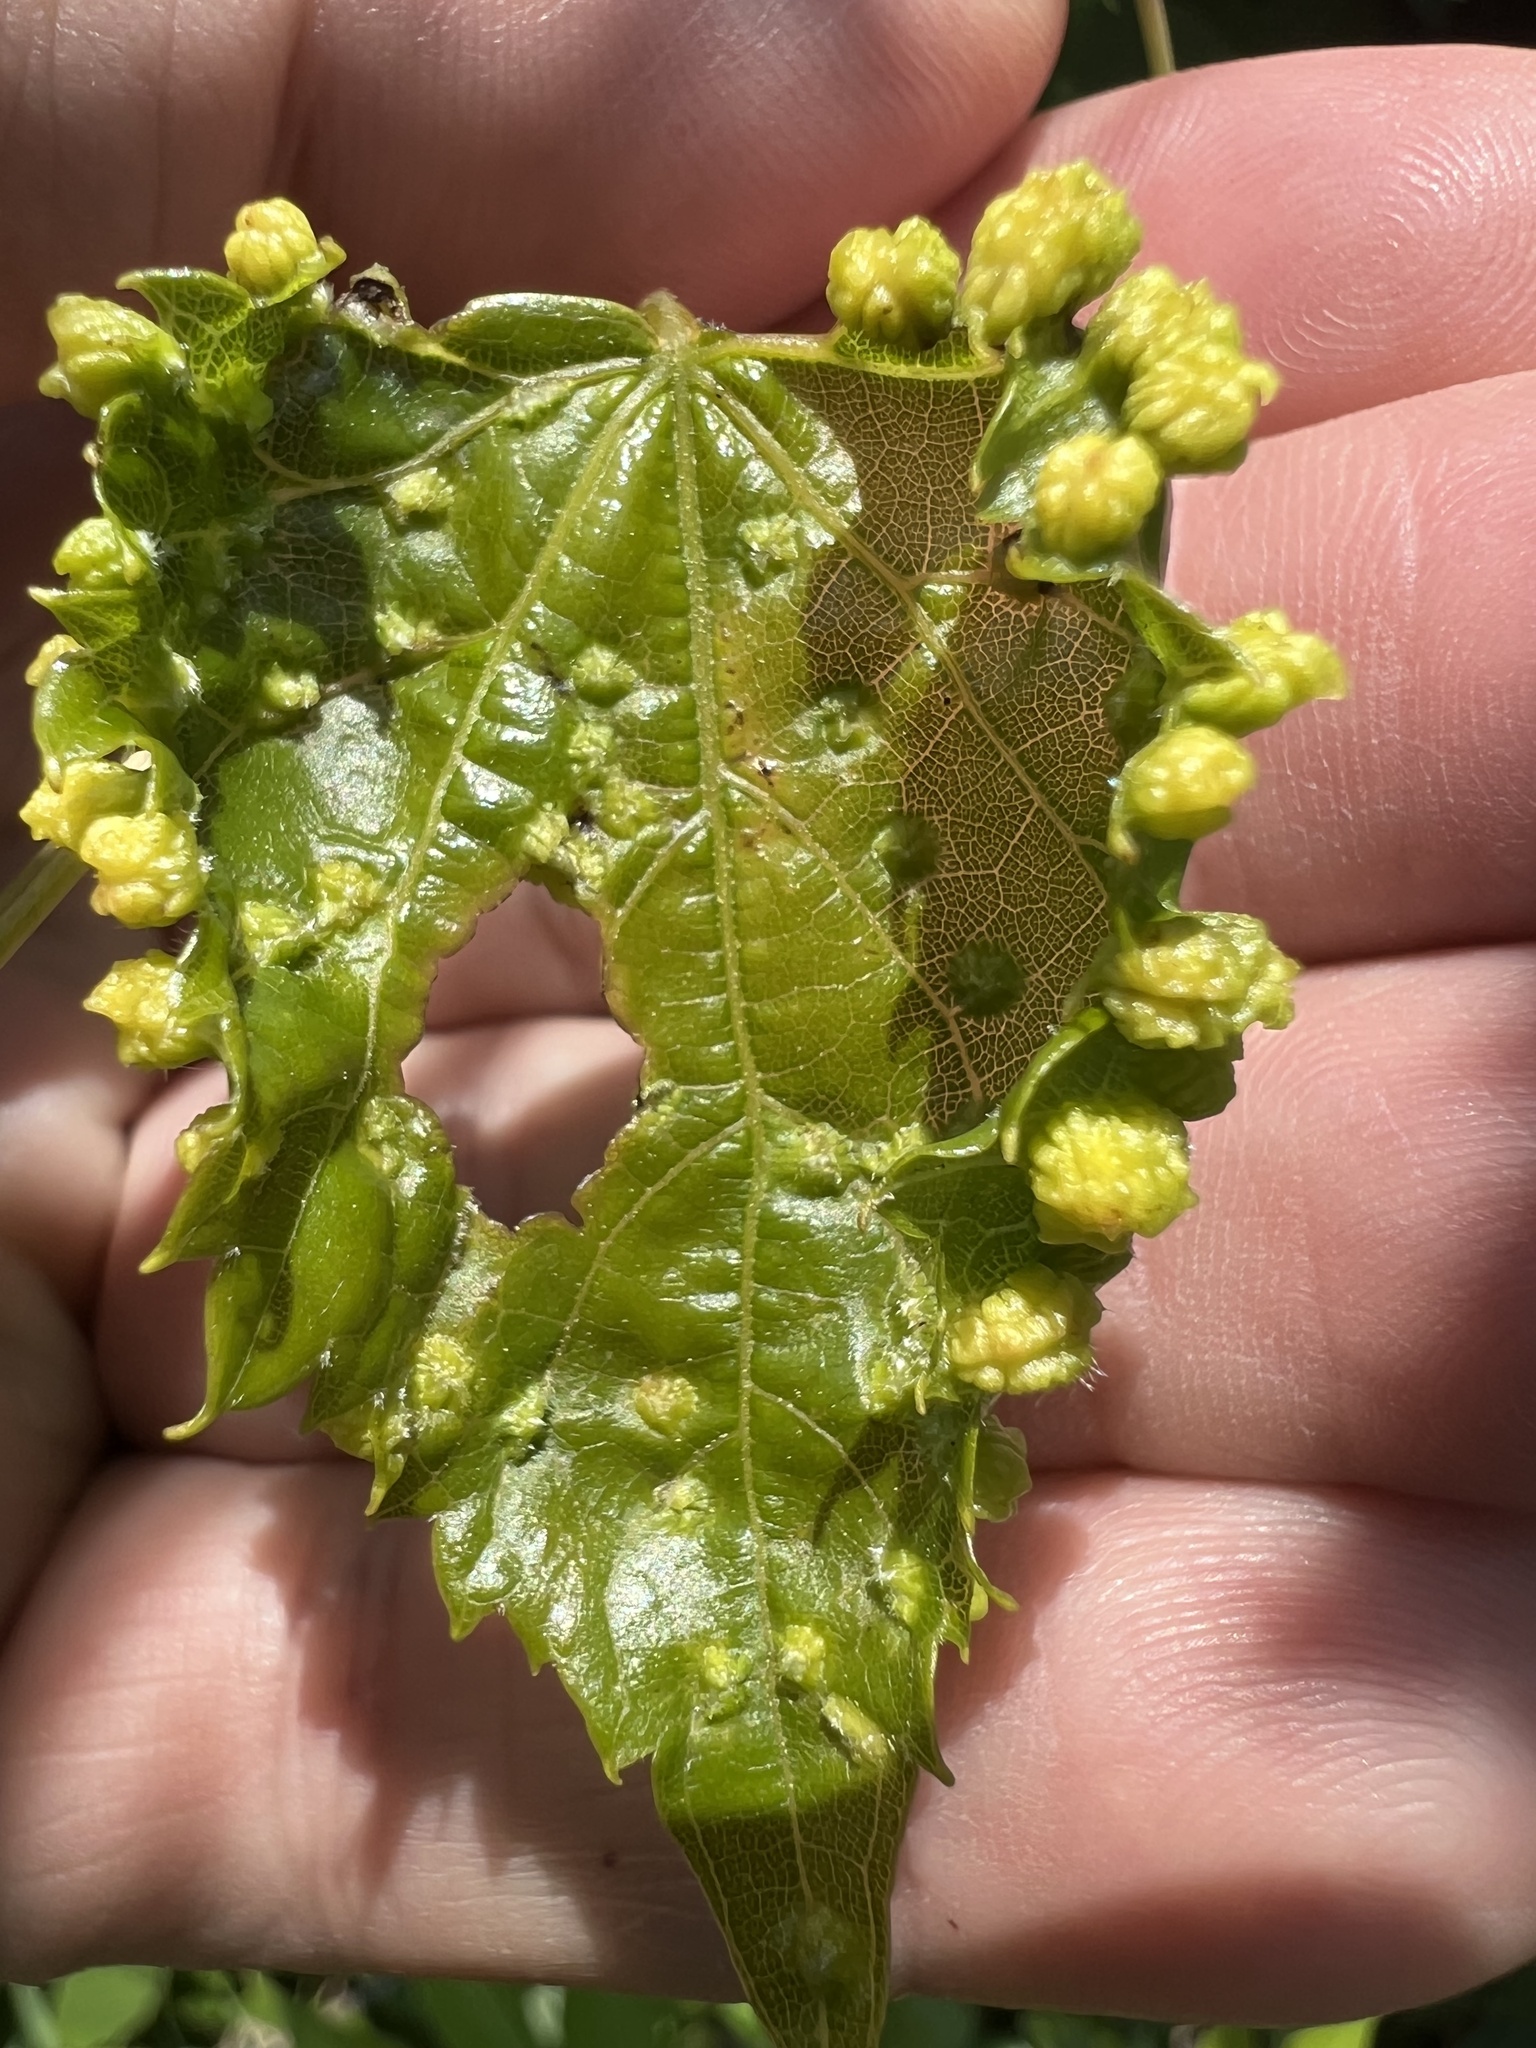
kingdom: Animalia
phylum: Arthropoda
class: Insecta
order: Hemiptera
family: Phylloxeridae
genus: Daktulosphaira
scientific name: Daktulosphaira vitifoliae
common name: Grape phylloxera
